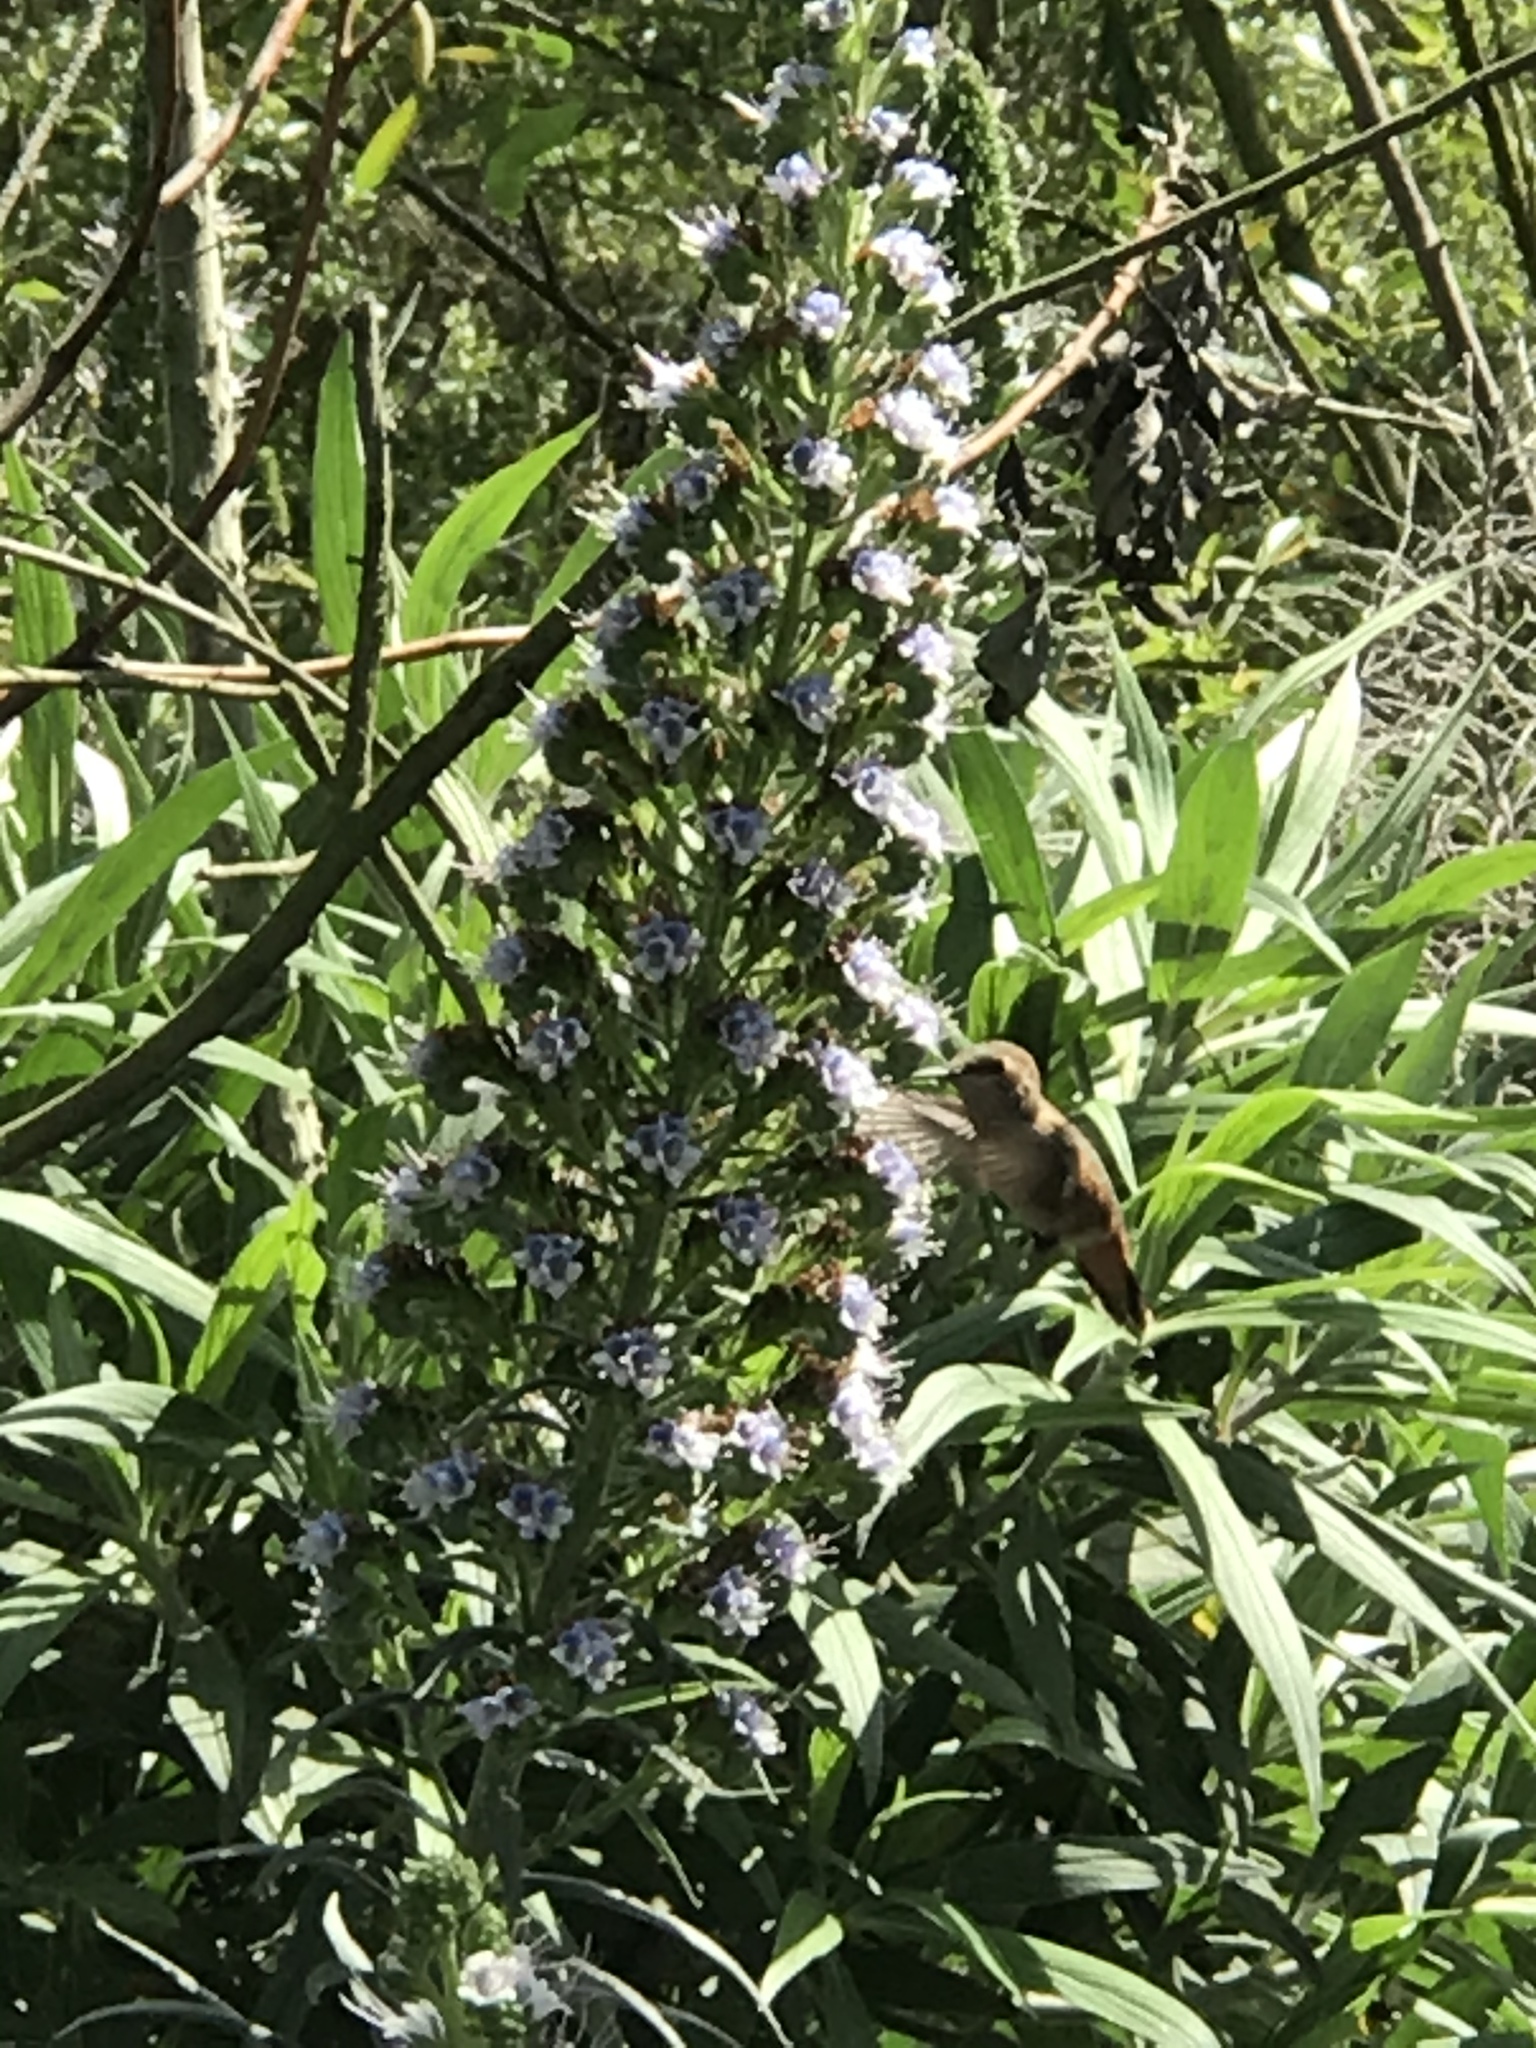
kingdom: Animalia
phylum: Chordata
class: Aves
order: Apodiformes
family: Trochilidae
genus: Selasphorus
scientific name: Selasphorus
